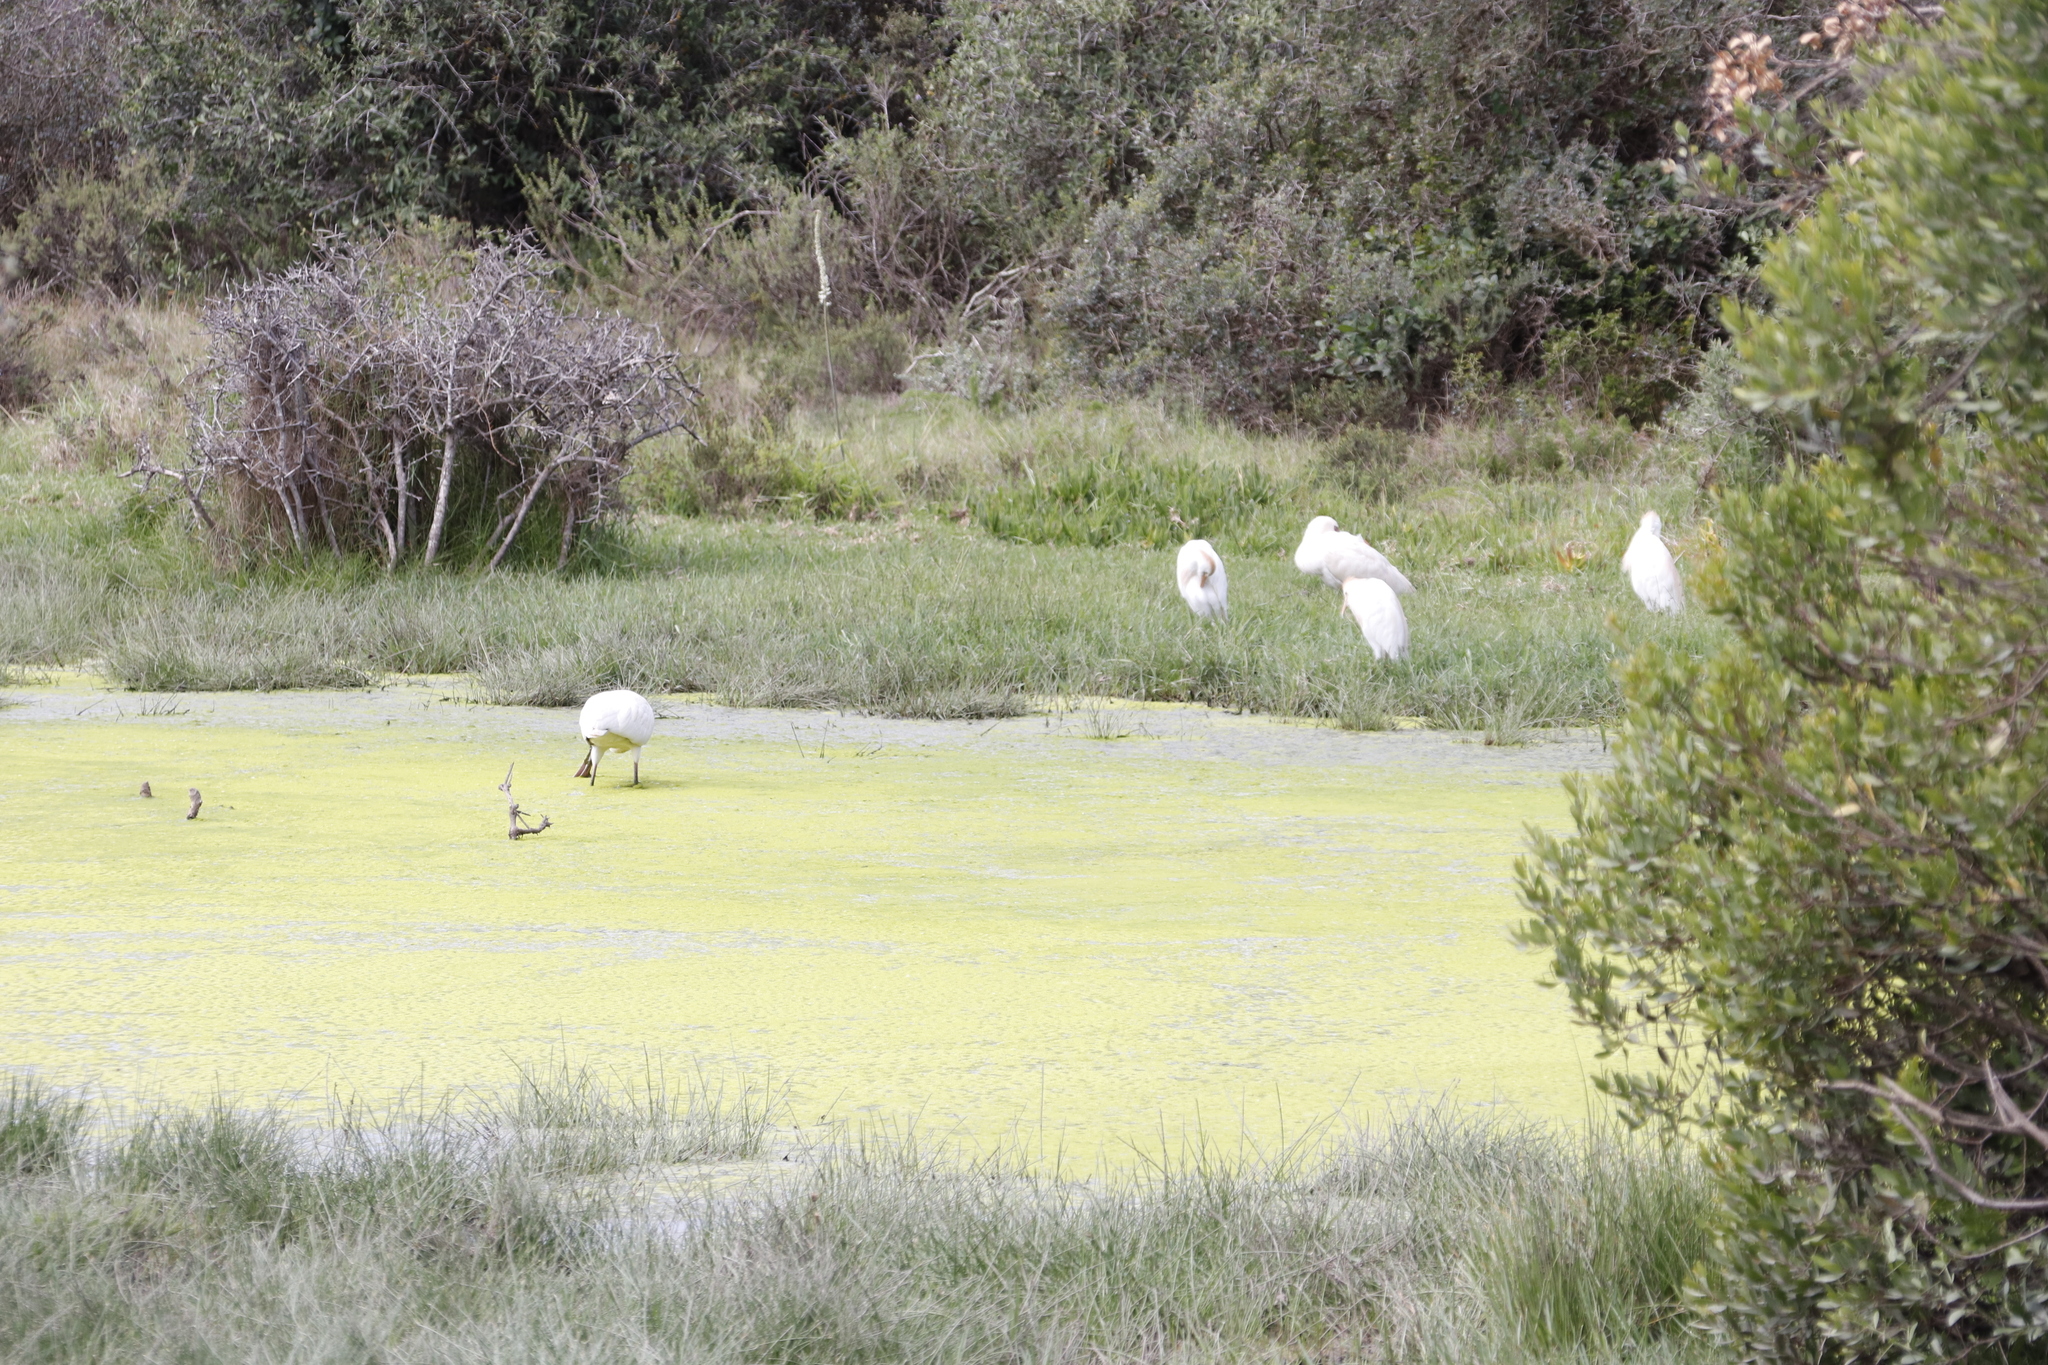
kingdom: Animalia
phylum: Chordata
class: Aves
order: Pelecaniformes
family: Threskiornithidae
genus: Platalea
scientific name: Platalea alba
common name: African spoonbill
